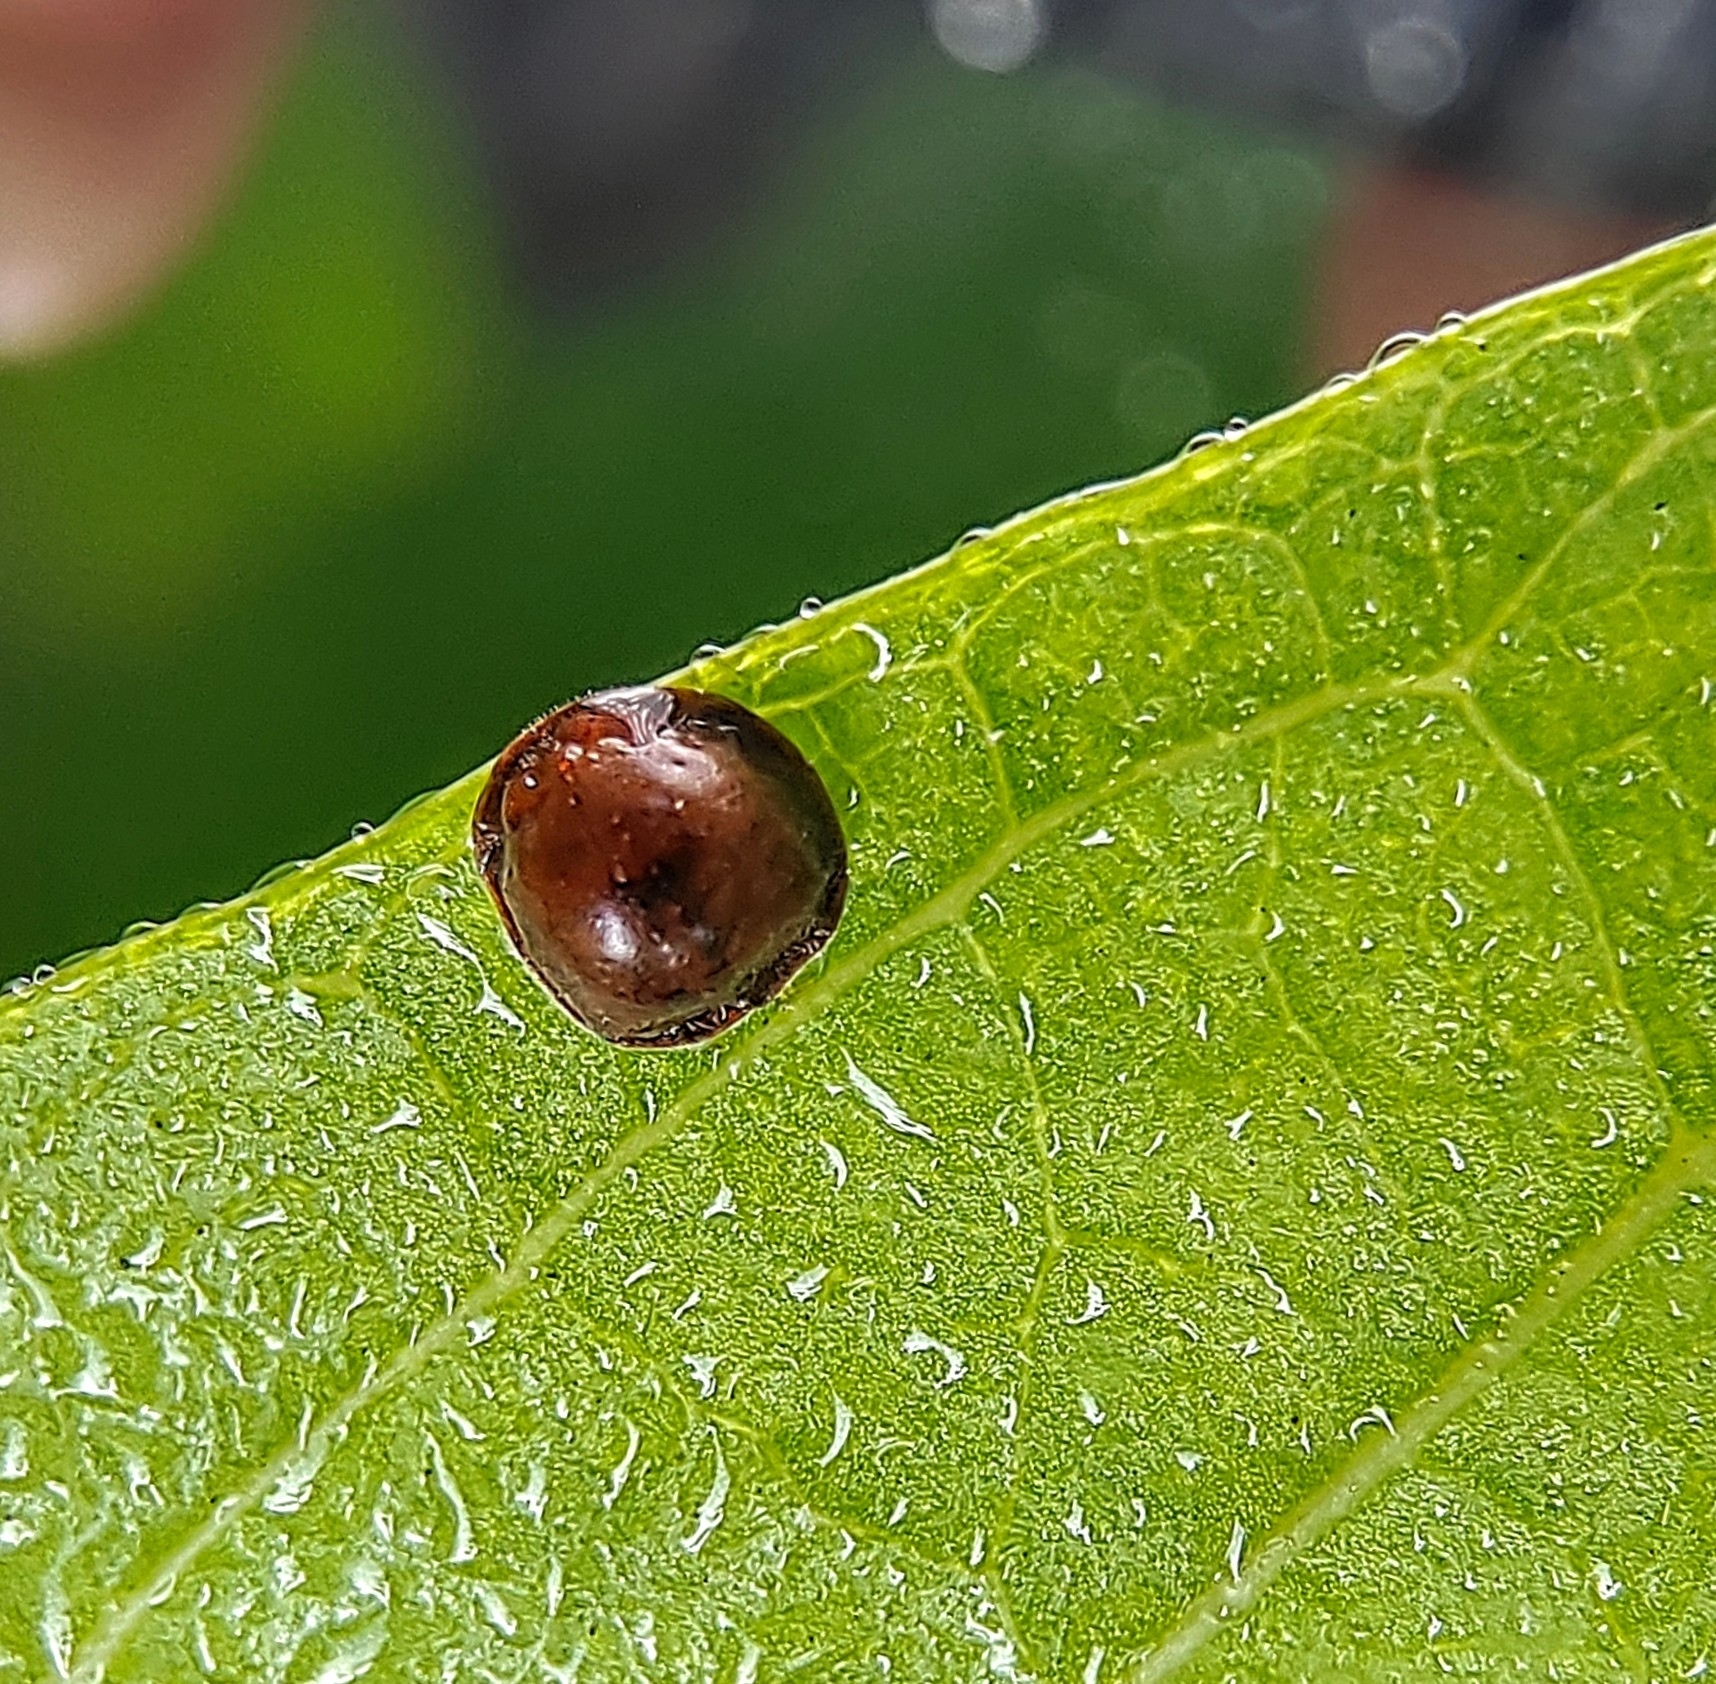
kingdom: Animalia
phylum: Arthropoda
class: Insecta
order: Hemiptera
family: Coccidae
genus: Saissetia
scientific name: Saissetia coffeae
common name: Hemispherical scale
